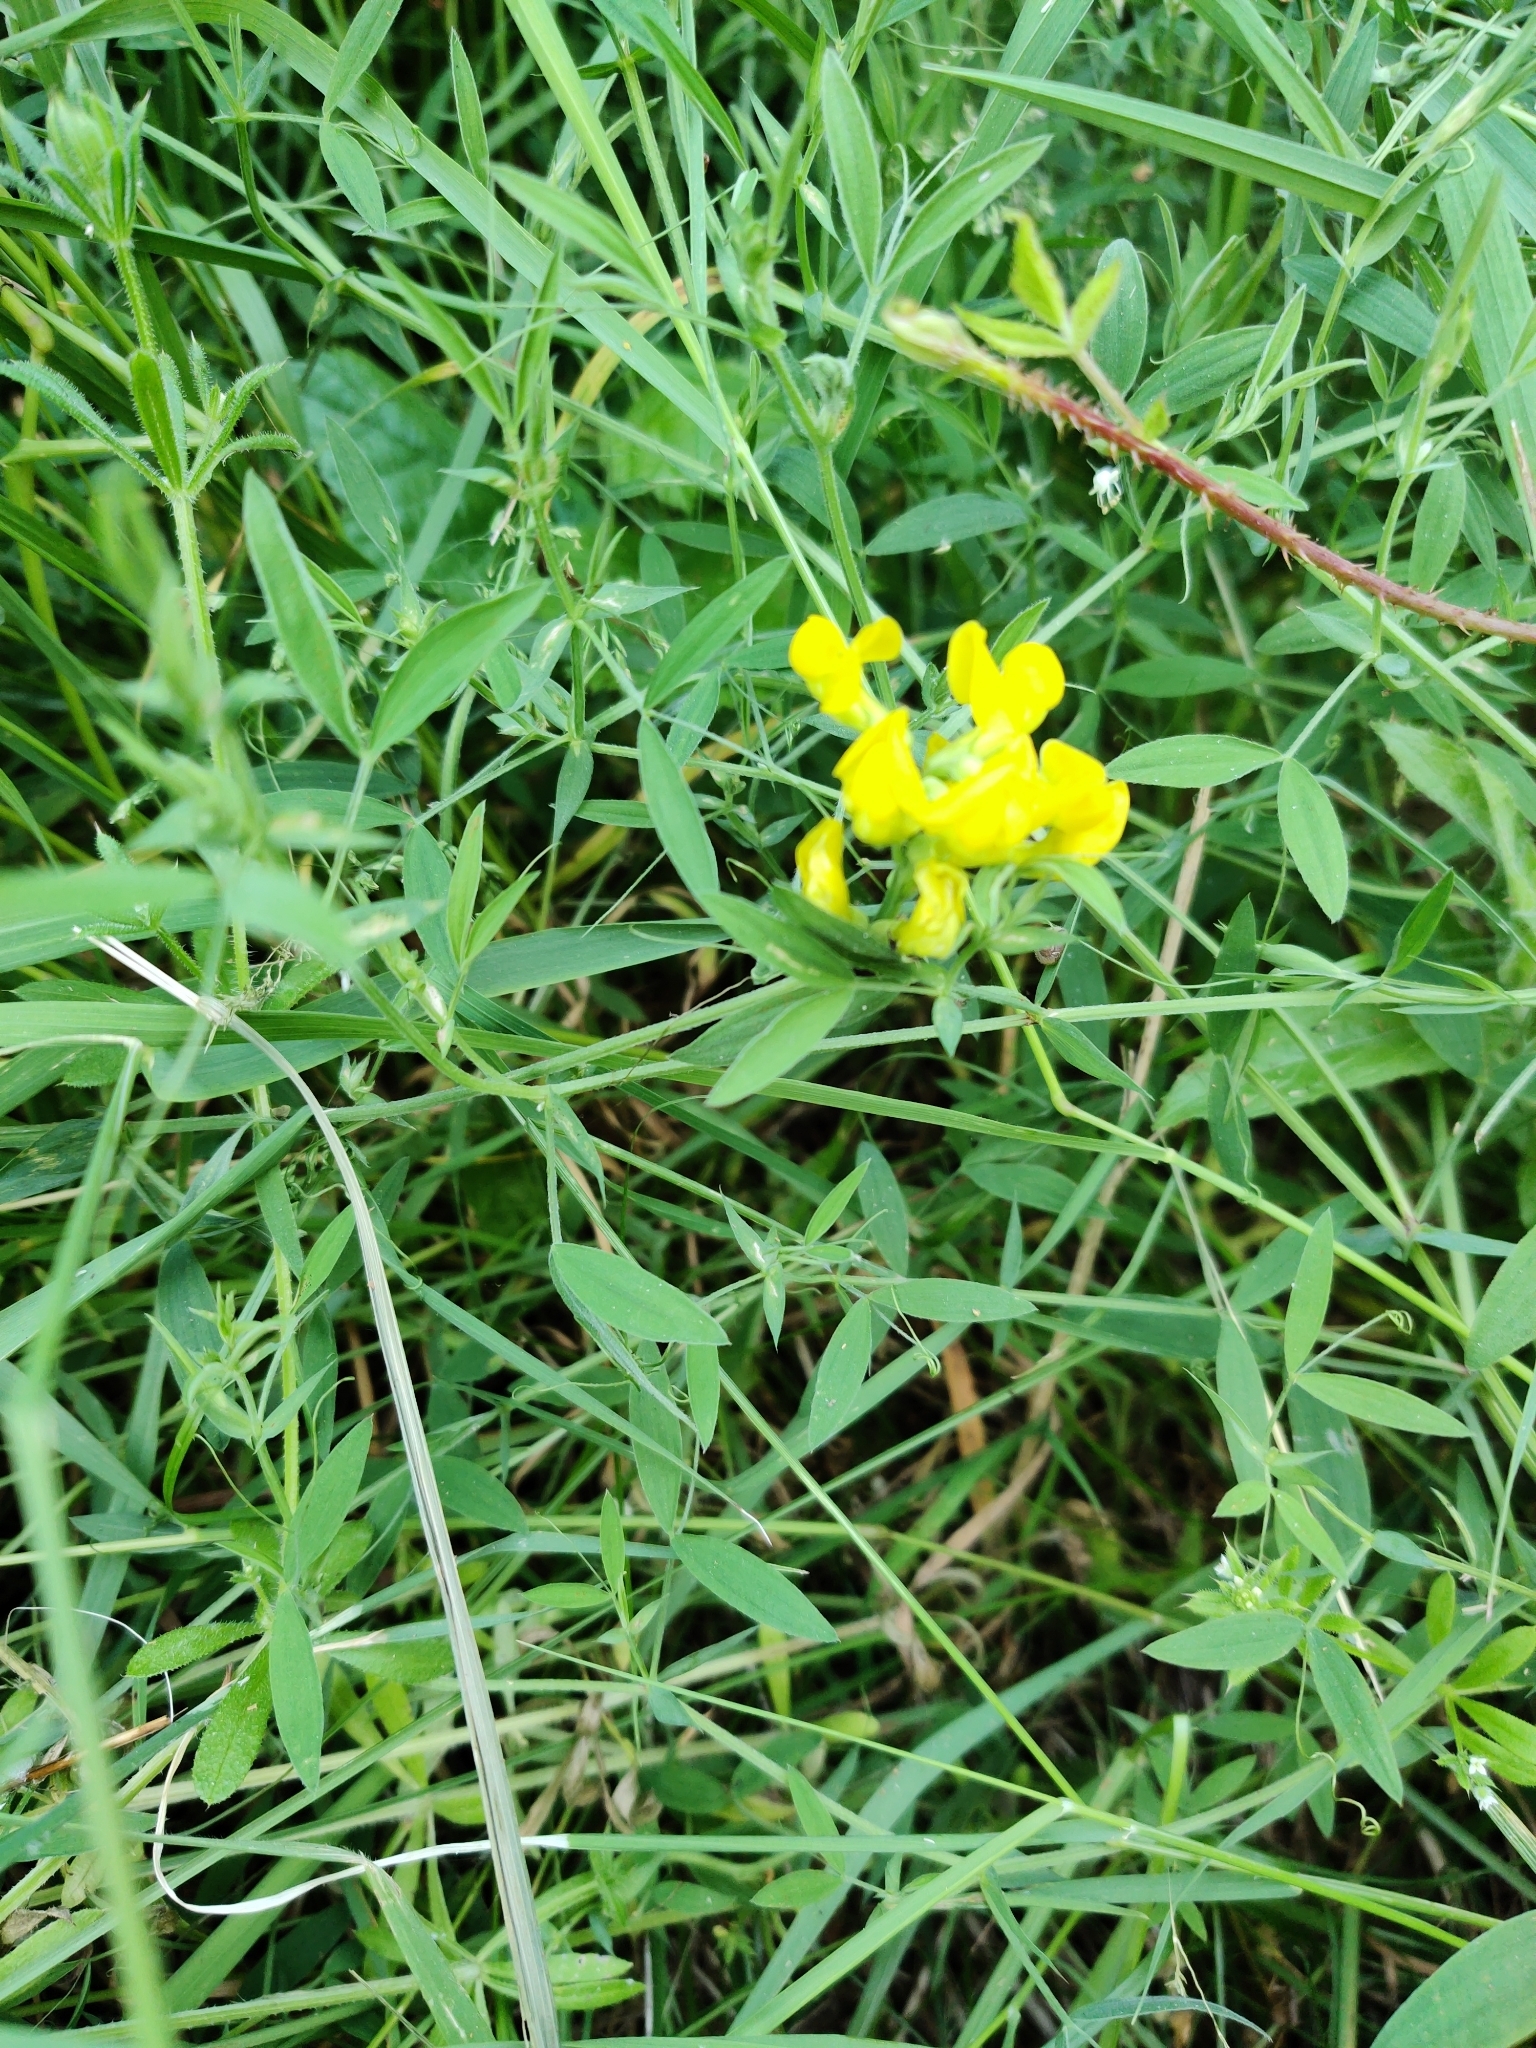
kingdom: Plantae
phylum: Tracheophyta
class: Magnoliopsida
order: Fabales
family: Fabaceae
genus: Lathyrus
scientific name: Lathyrus pratensis
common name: Meadow vetchling
